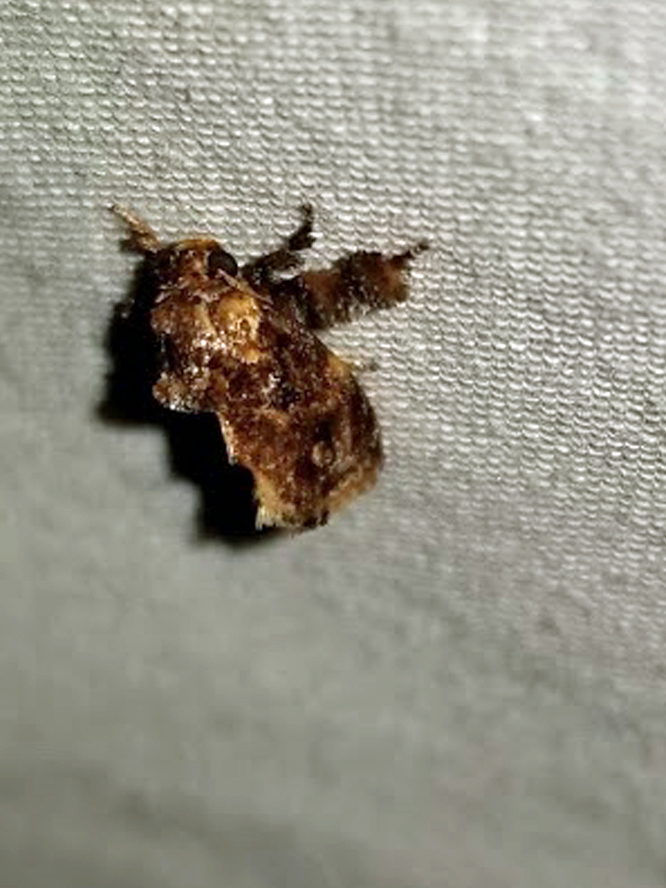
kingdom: Animalia
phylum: Arthropoda
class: Insecta
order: Lepidoptera
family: Limacodidae
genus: Isochaetes
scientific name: Isochaetes beutenmuelleri
